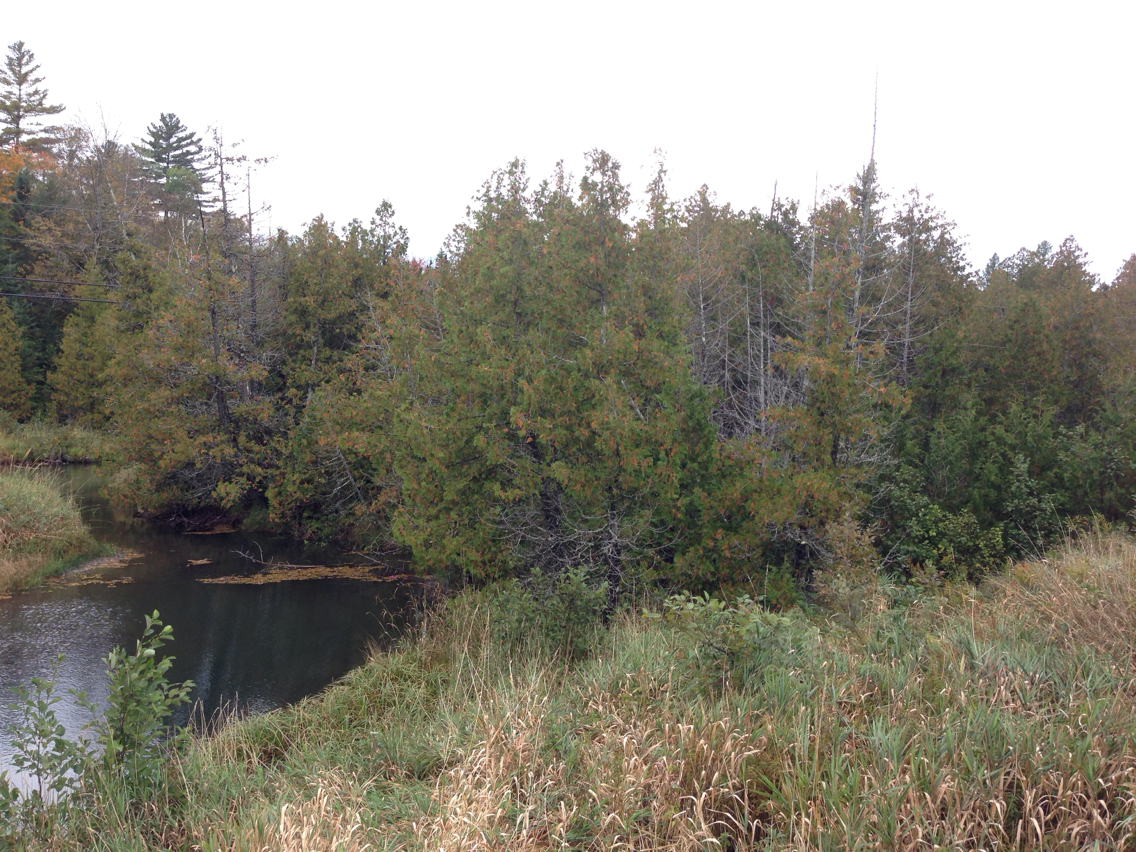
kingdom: Plantae
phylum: Tracheophyta
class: Pinopsida
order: Pinales
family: Cupressaceae
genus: Thuja
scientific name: Thuja occidentalis
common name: Northern white-cedar
